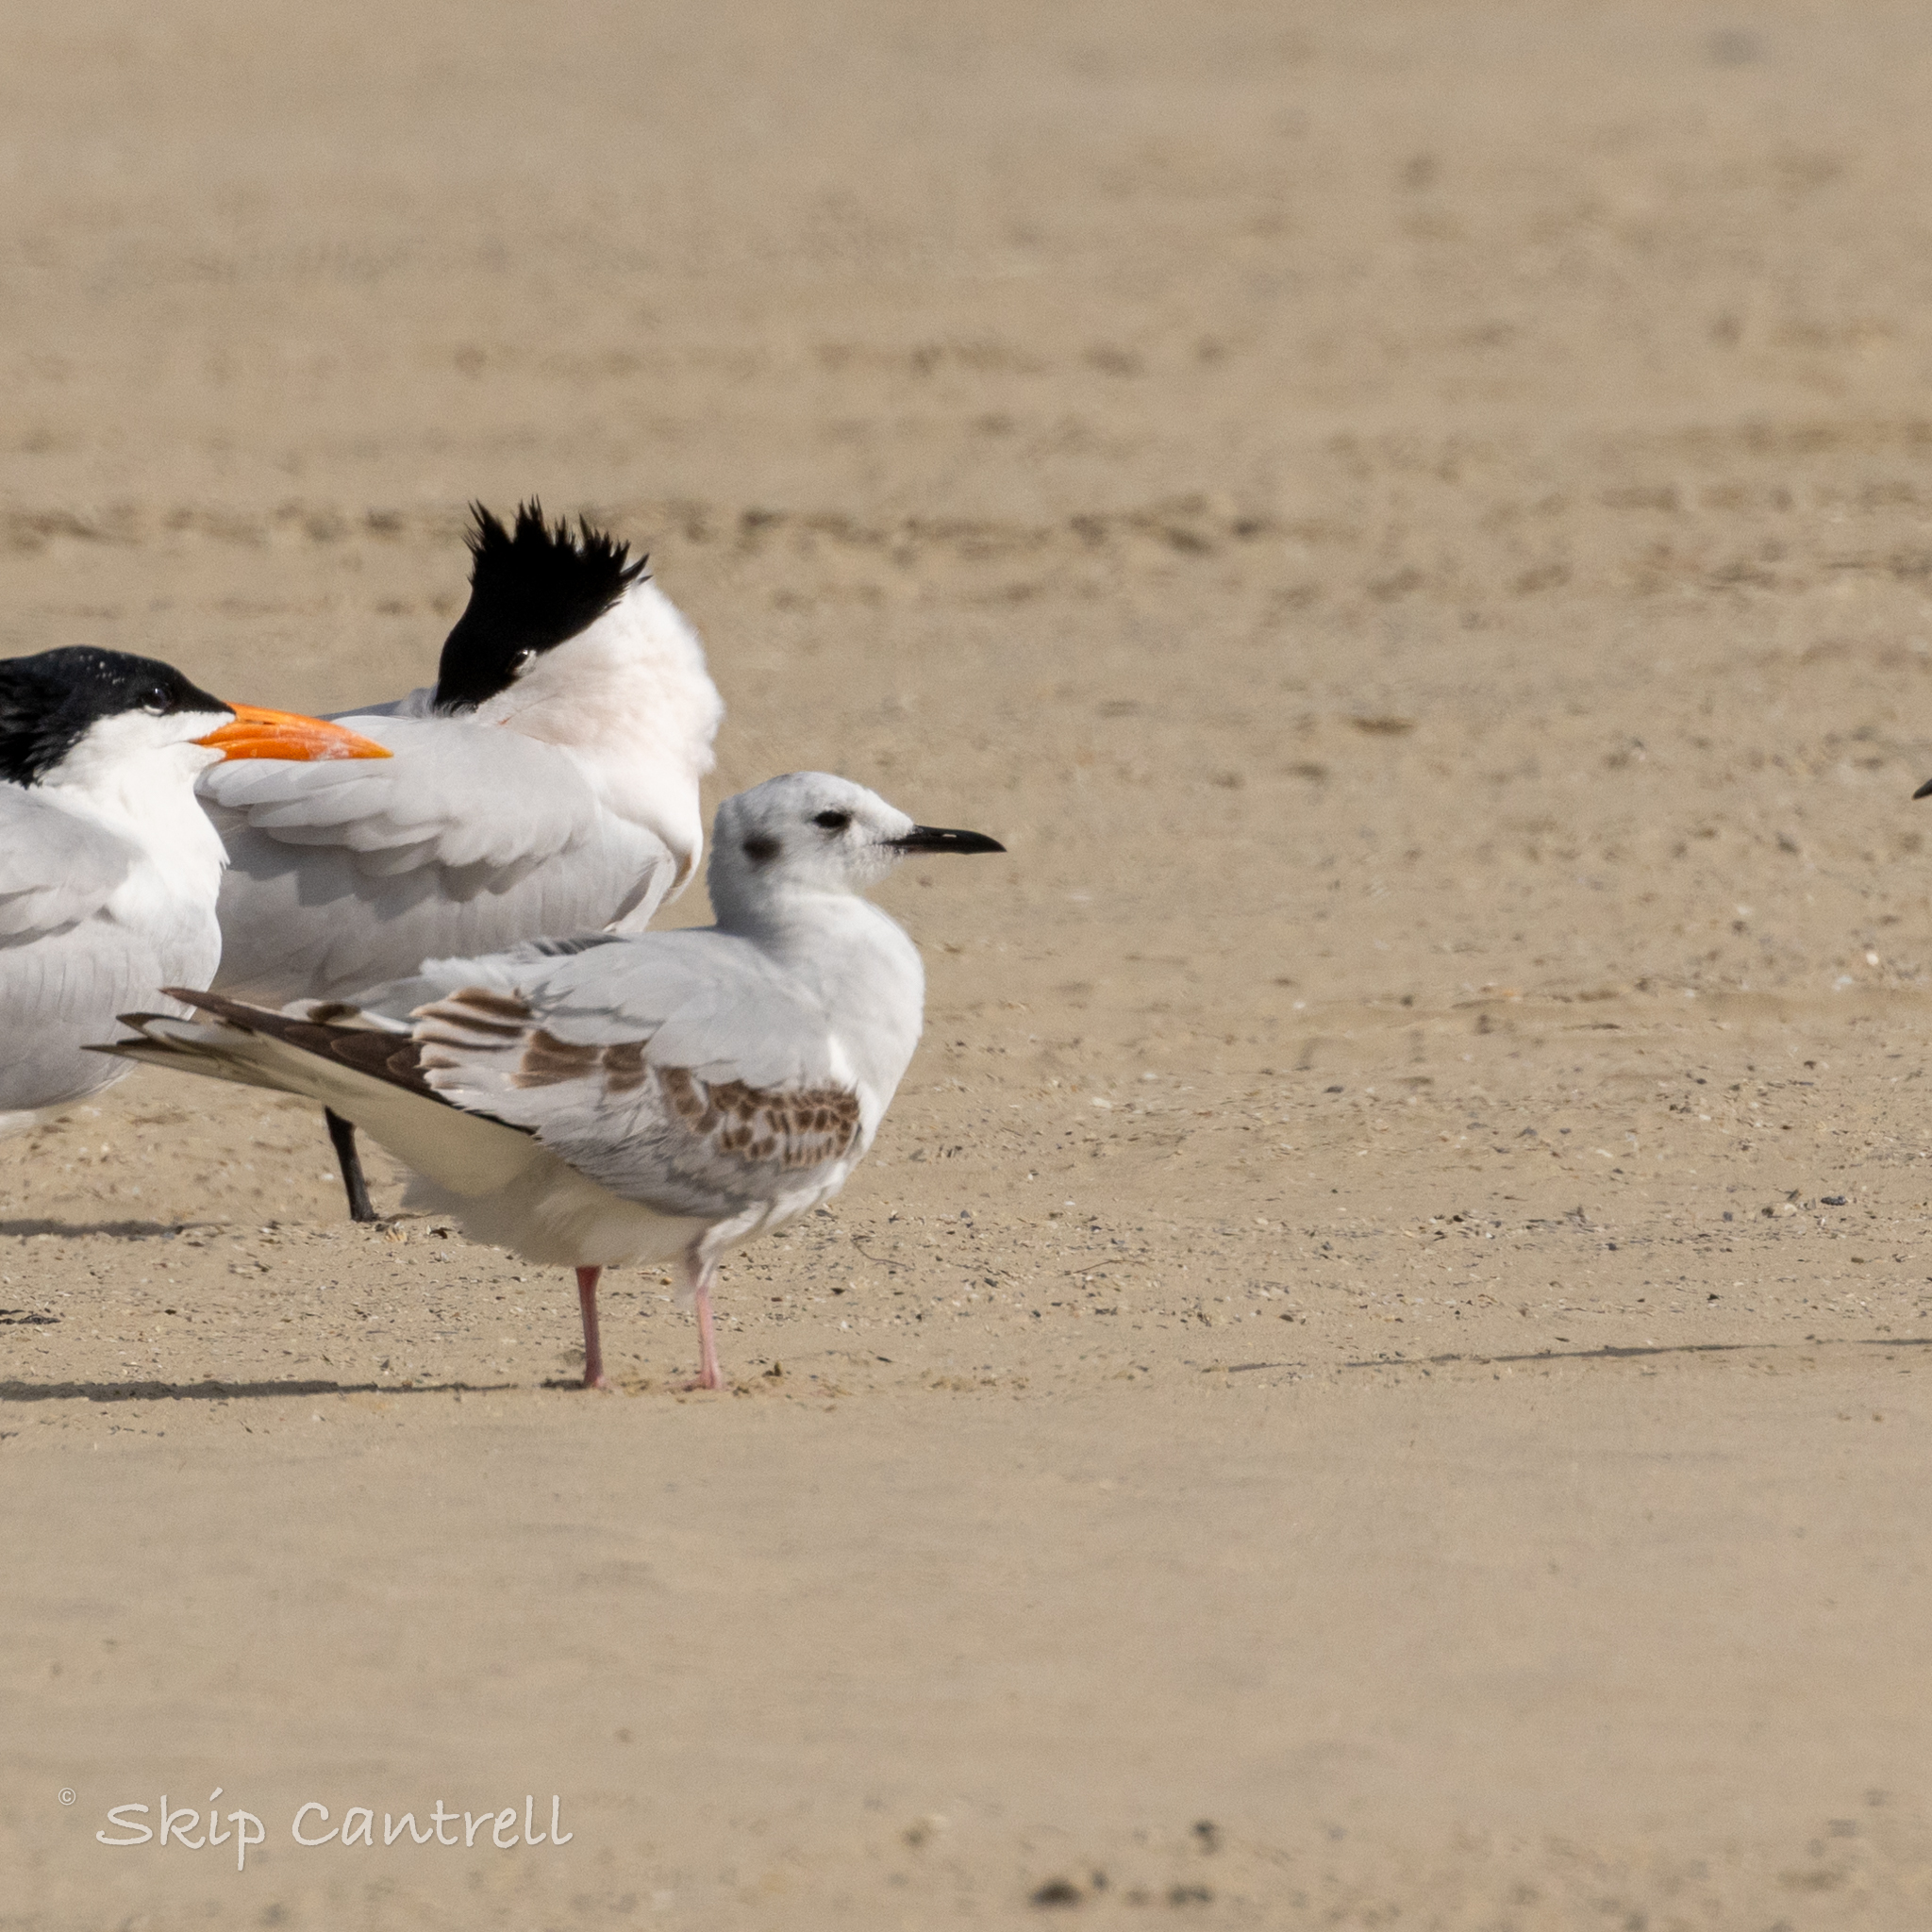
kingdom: Animalia
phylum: Chordata
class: Aves
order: Charadriiformes
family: Laridae
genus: Chroicocephalus
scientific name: Chroicocephalus philadelphia
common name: Bonaparte's gull
